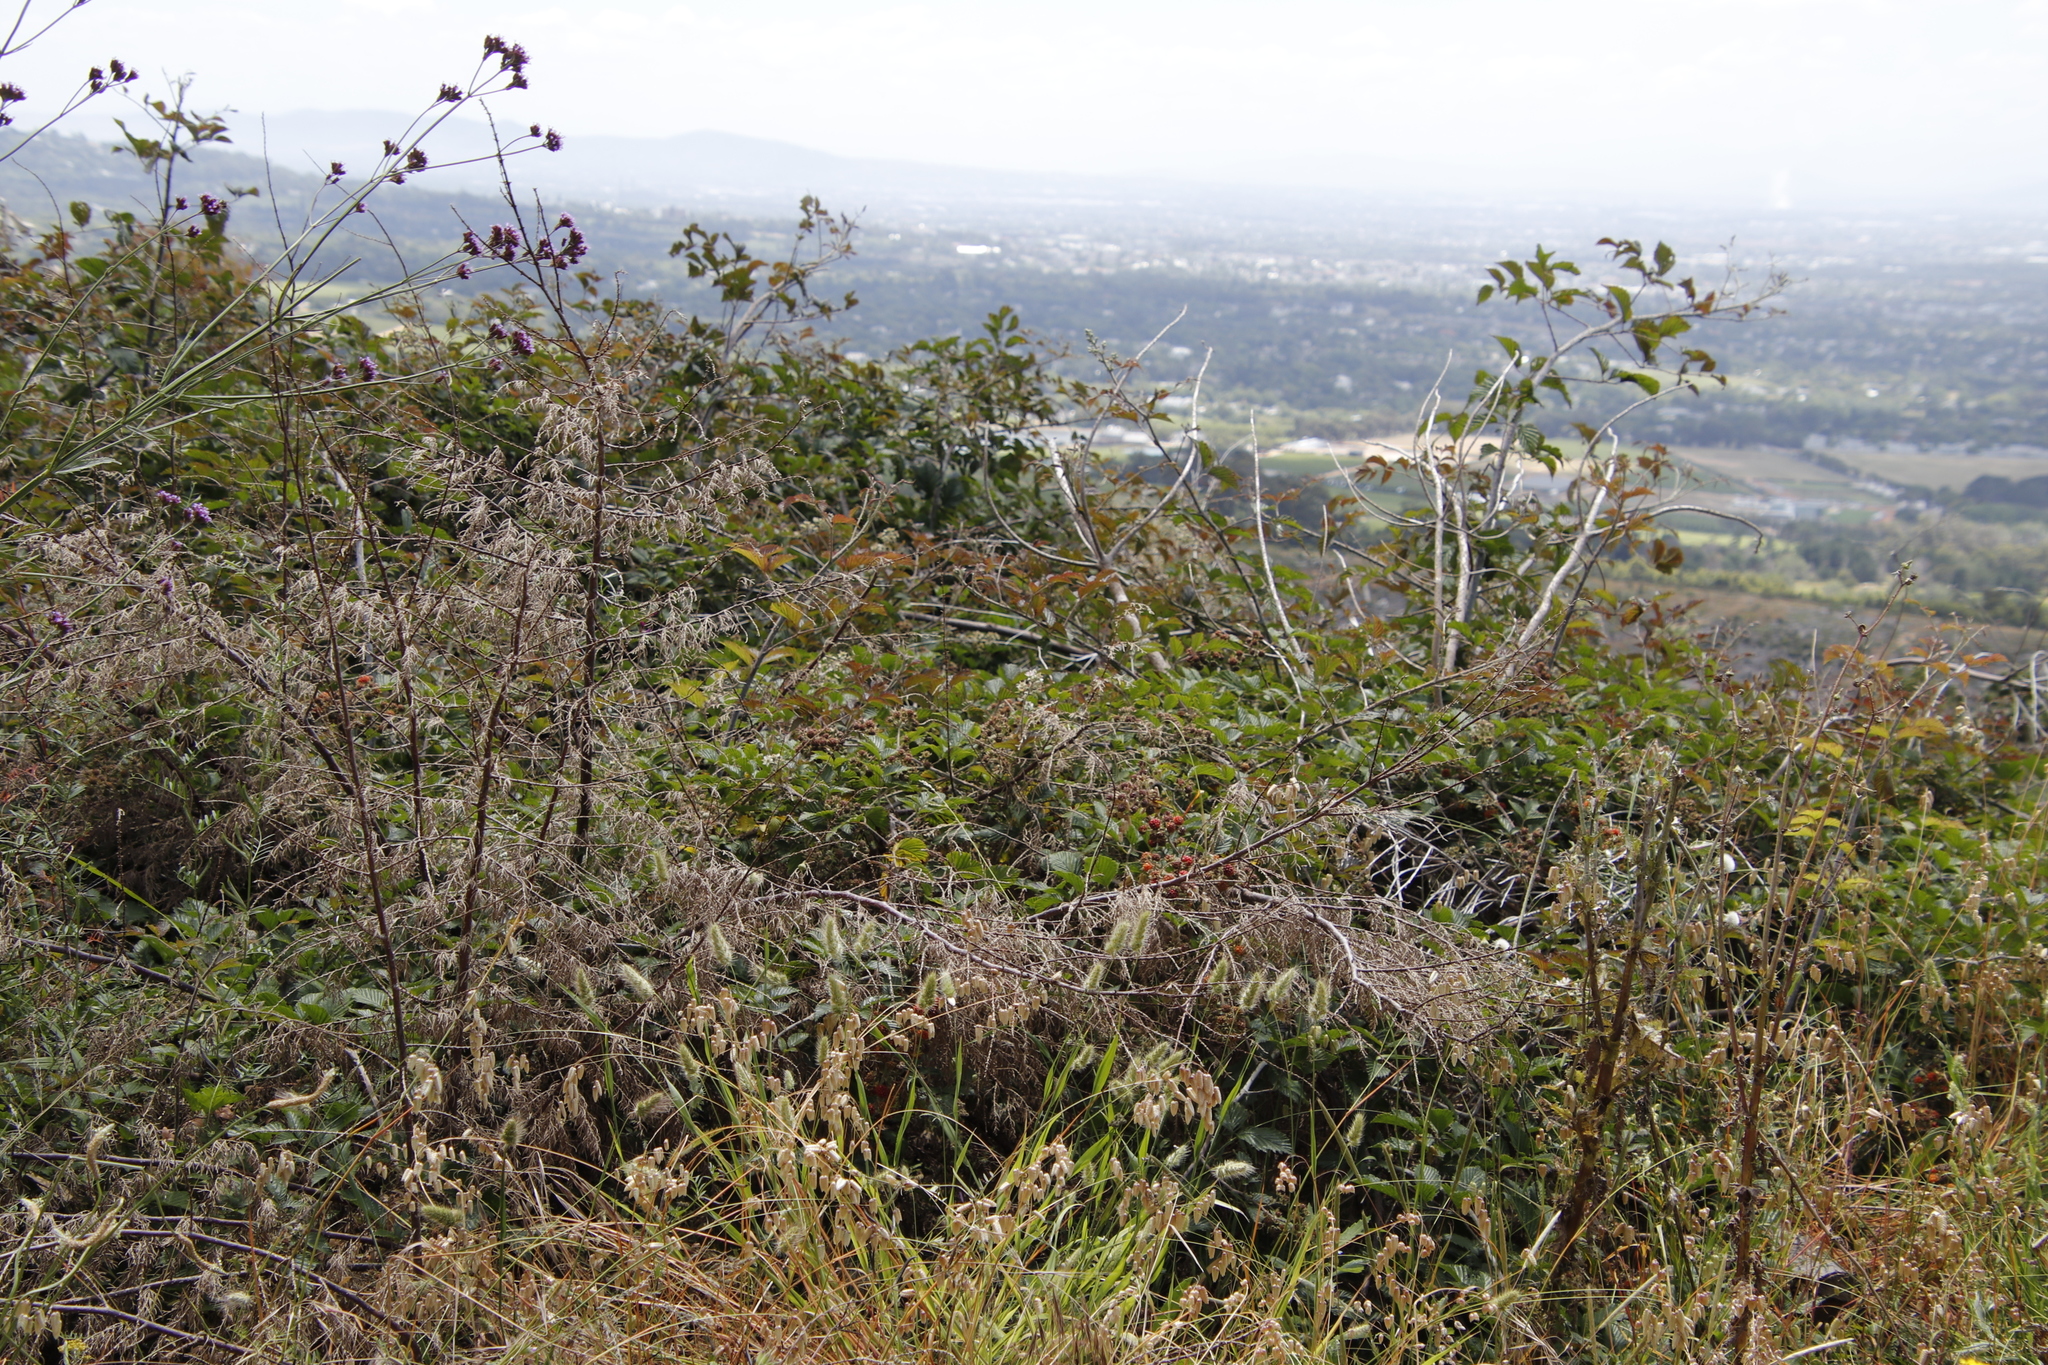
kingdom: Plantae
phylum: Tracheophyta
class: Magnoliopsida
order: Rosales
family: Rosaceae
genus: Rubus
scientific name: Rubus pinnatus
